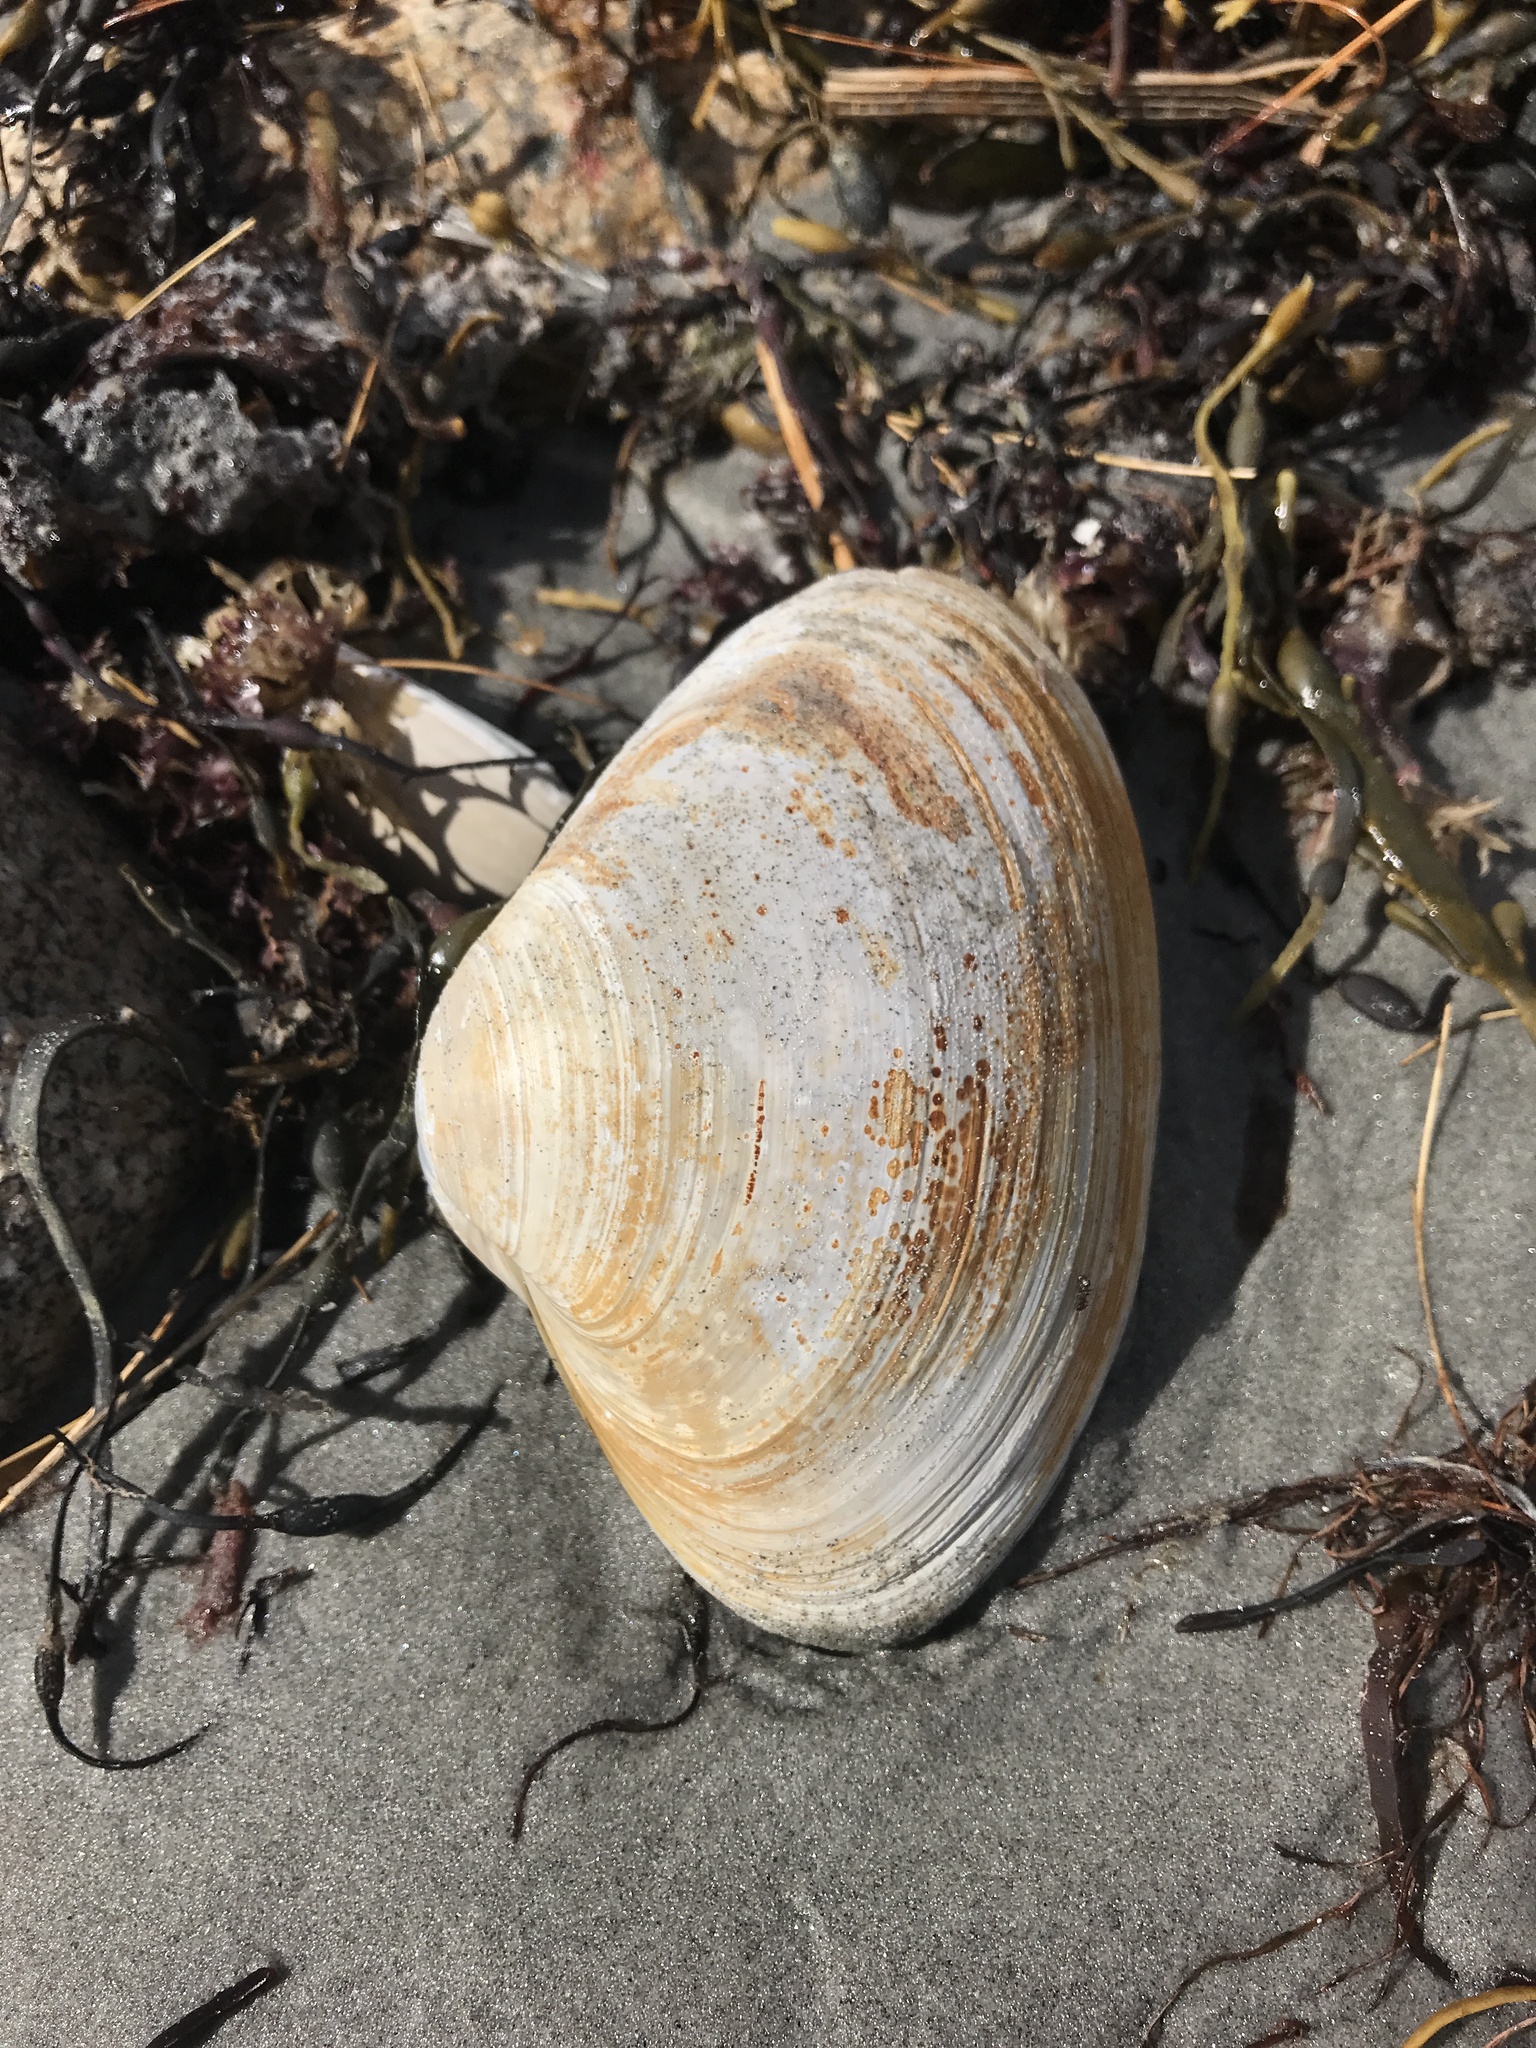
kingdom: Animalia
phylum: Mollusca
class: Bivalvia
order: Venerida
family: Mactridae
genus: Spisula
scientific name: Spisula solidissima
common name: Atlantic surf clam
